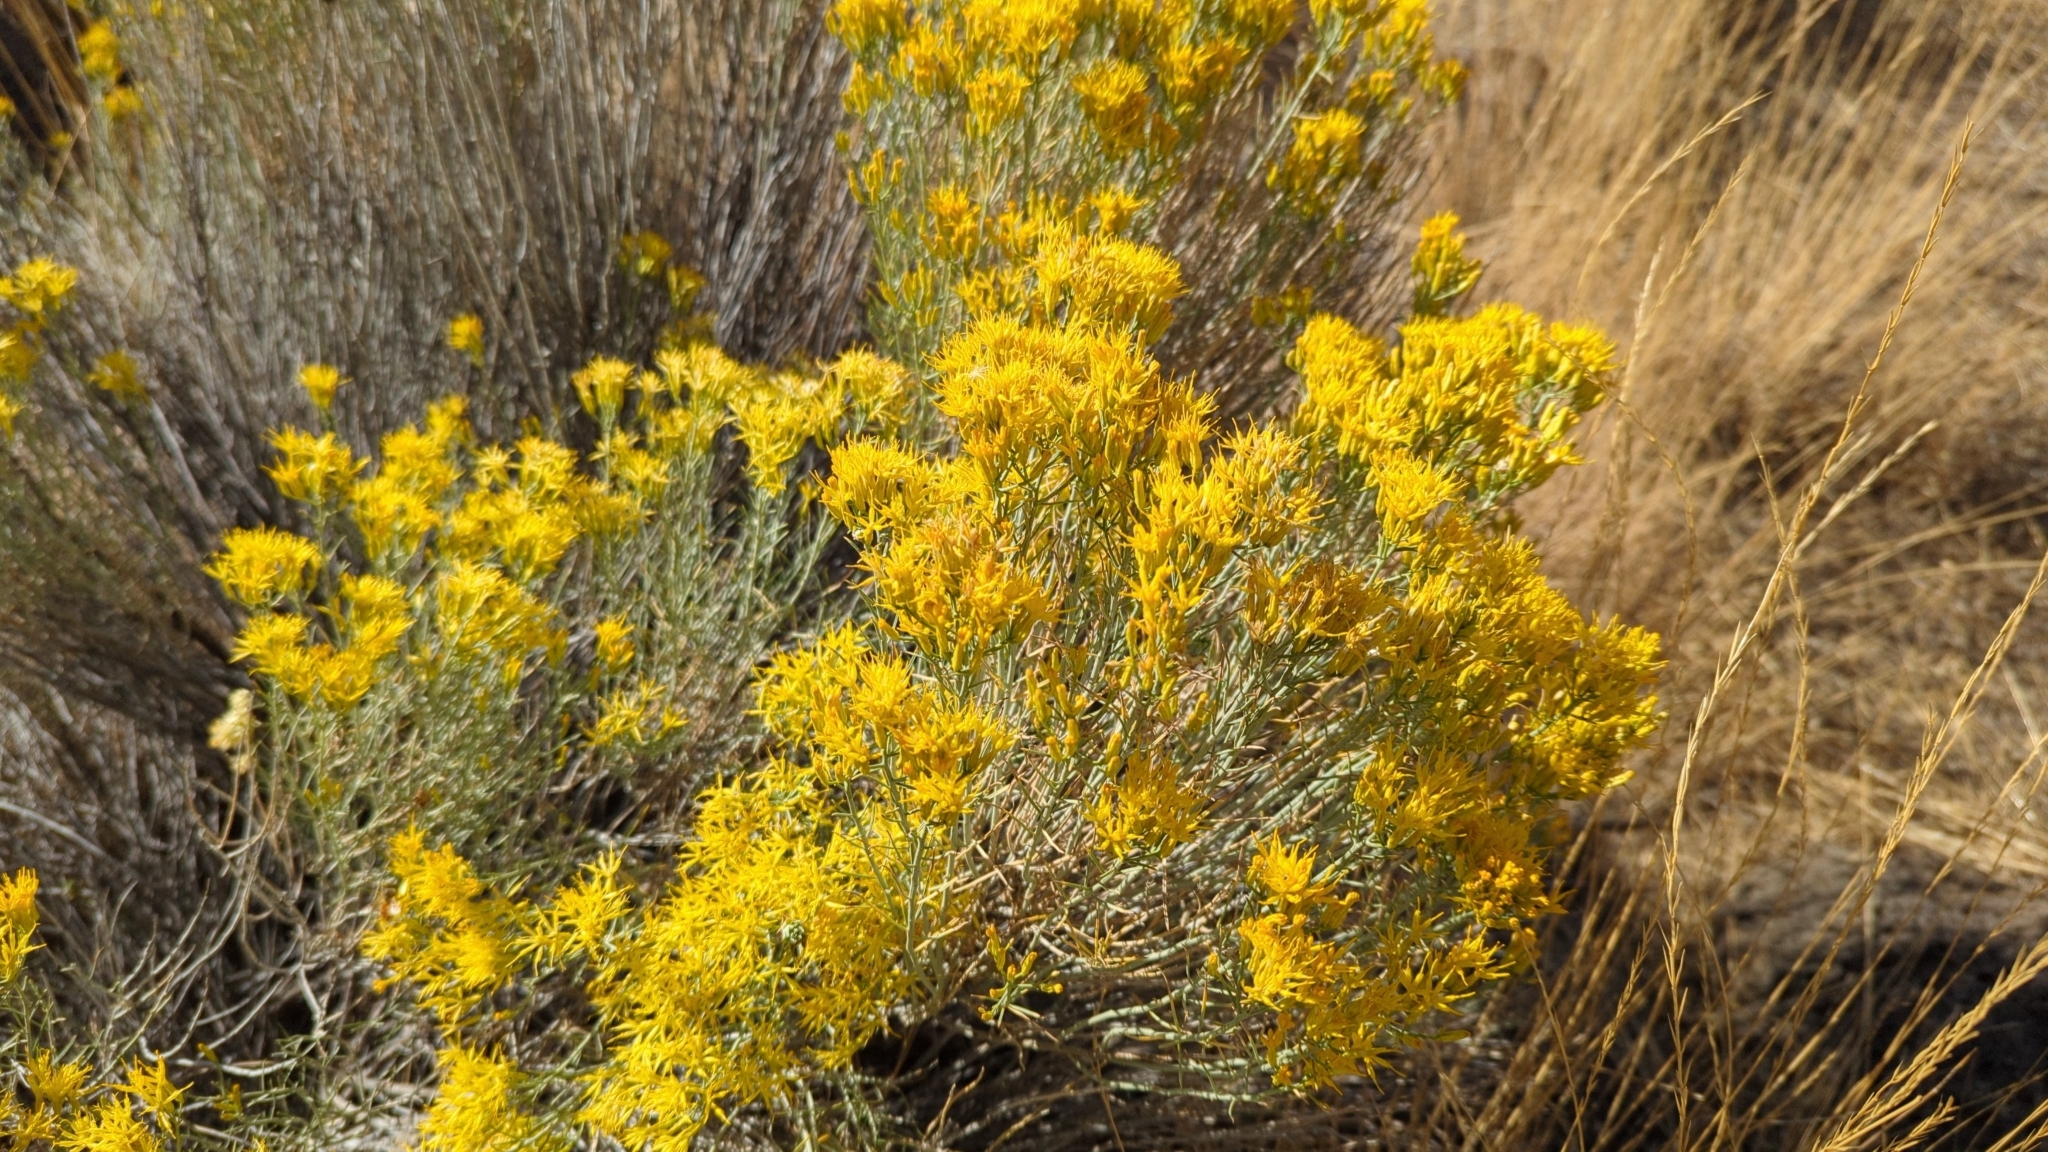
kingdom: Plantae
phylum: Tracheophyta
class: Magnoliopsida
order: Asterales
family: Asteraceae
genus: Ericameria
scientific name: Ericameria nauseosa
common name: Rubber rabbitbrush
